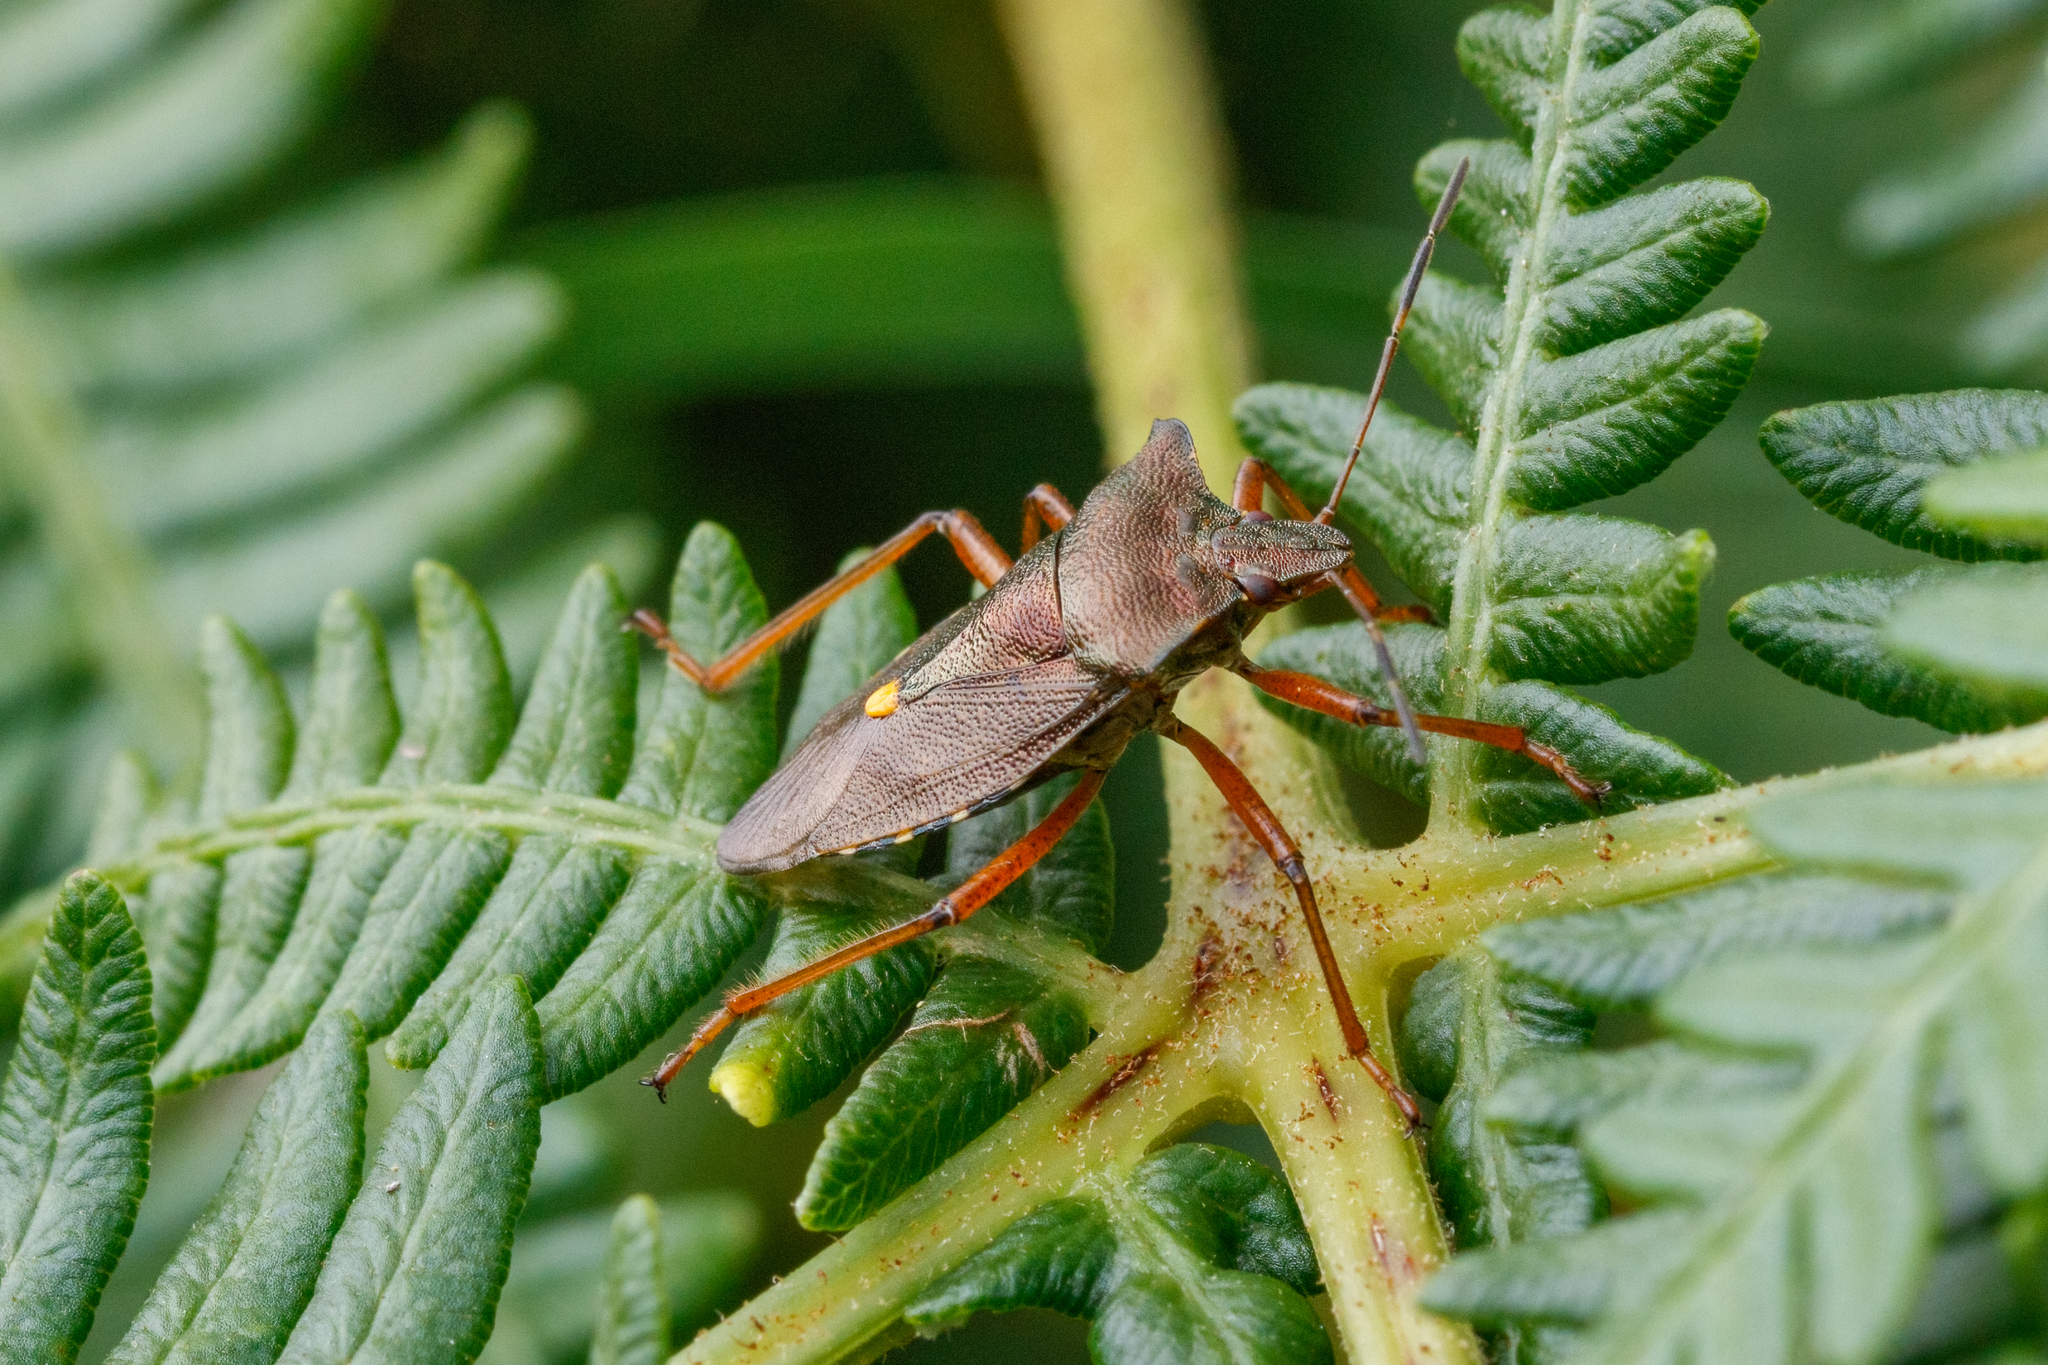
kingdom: Animalia
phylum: Arthropoda
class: Insecta
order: Hemiptera
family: Pentatomidae
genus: Pentatoma
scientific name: Pentatoma rufipes
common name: Forest bug
